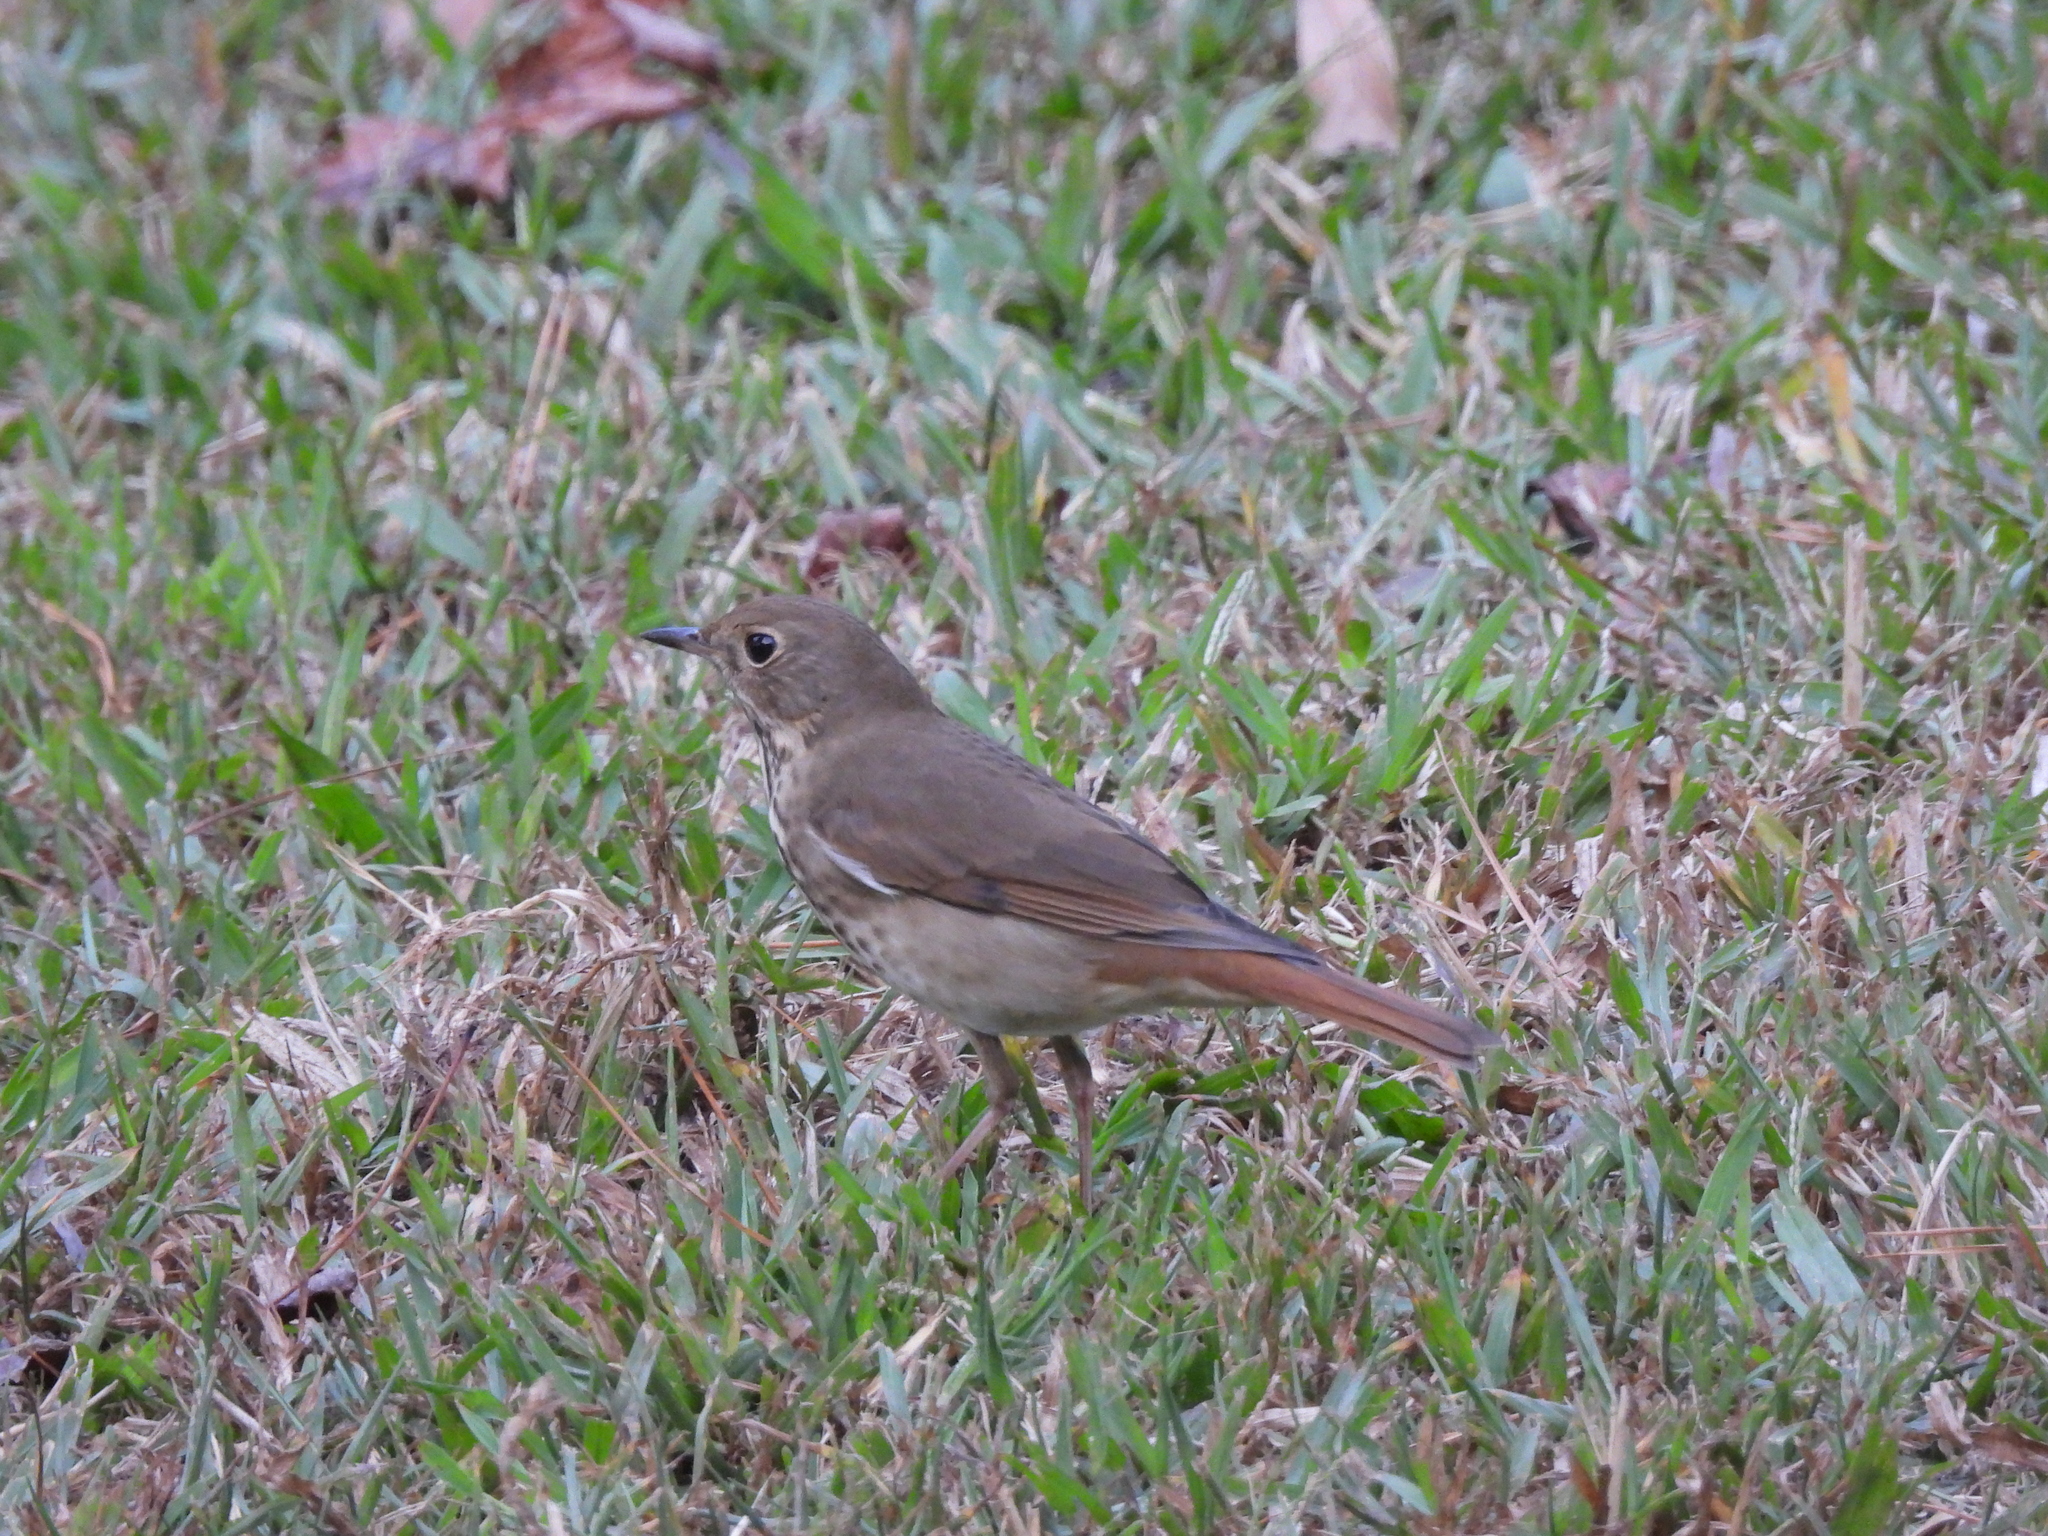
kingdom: Animalia
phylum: Chordata
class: Aves
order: Passeriformes
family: Turdidae
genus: Catharus
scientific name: Catharus guttatus
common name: Hermit thrush
